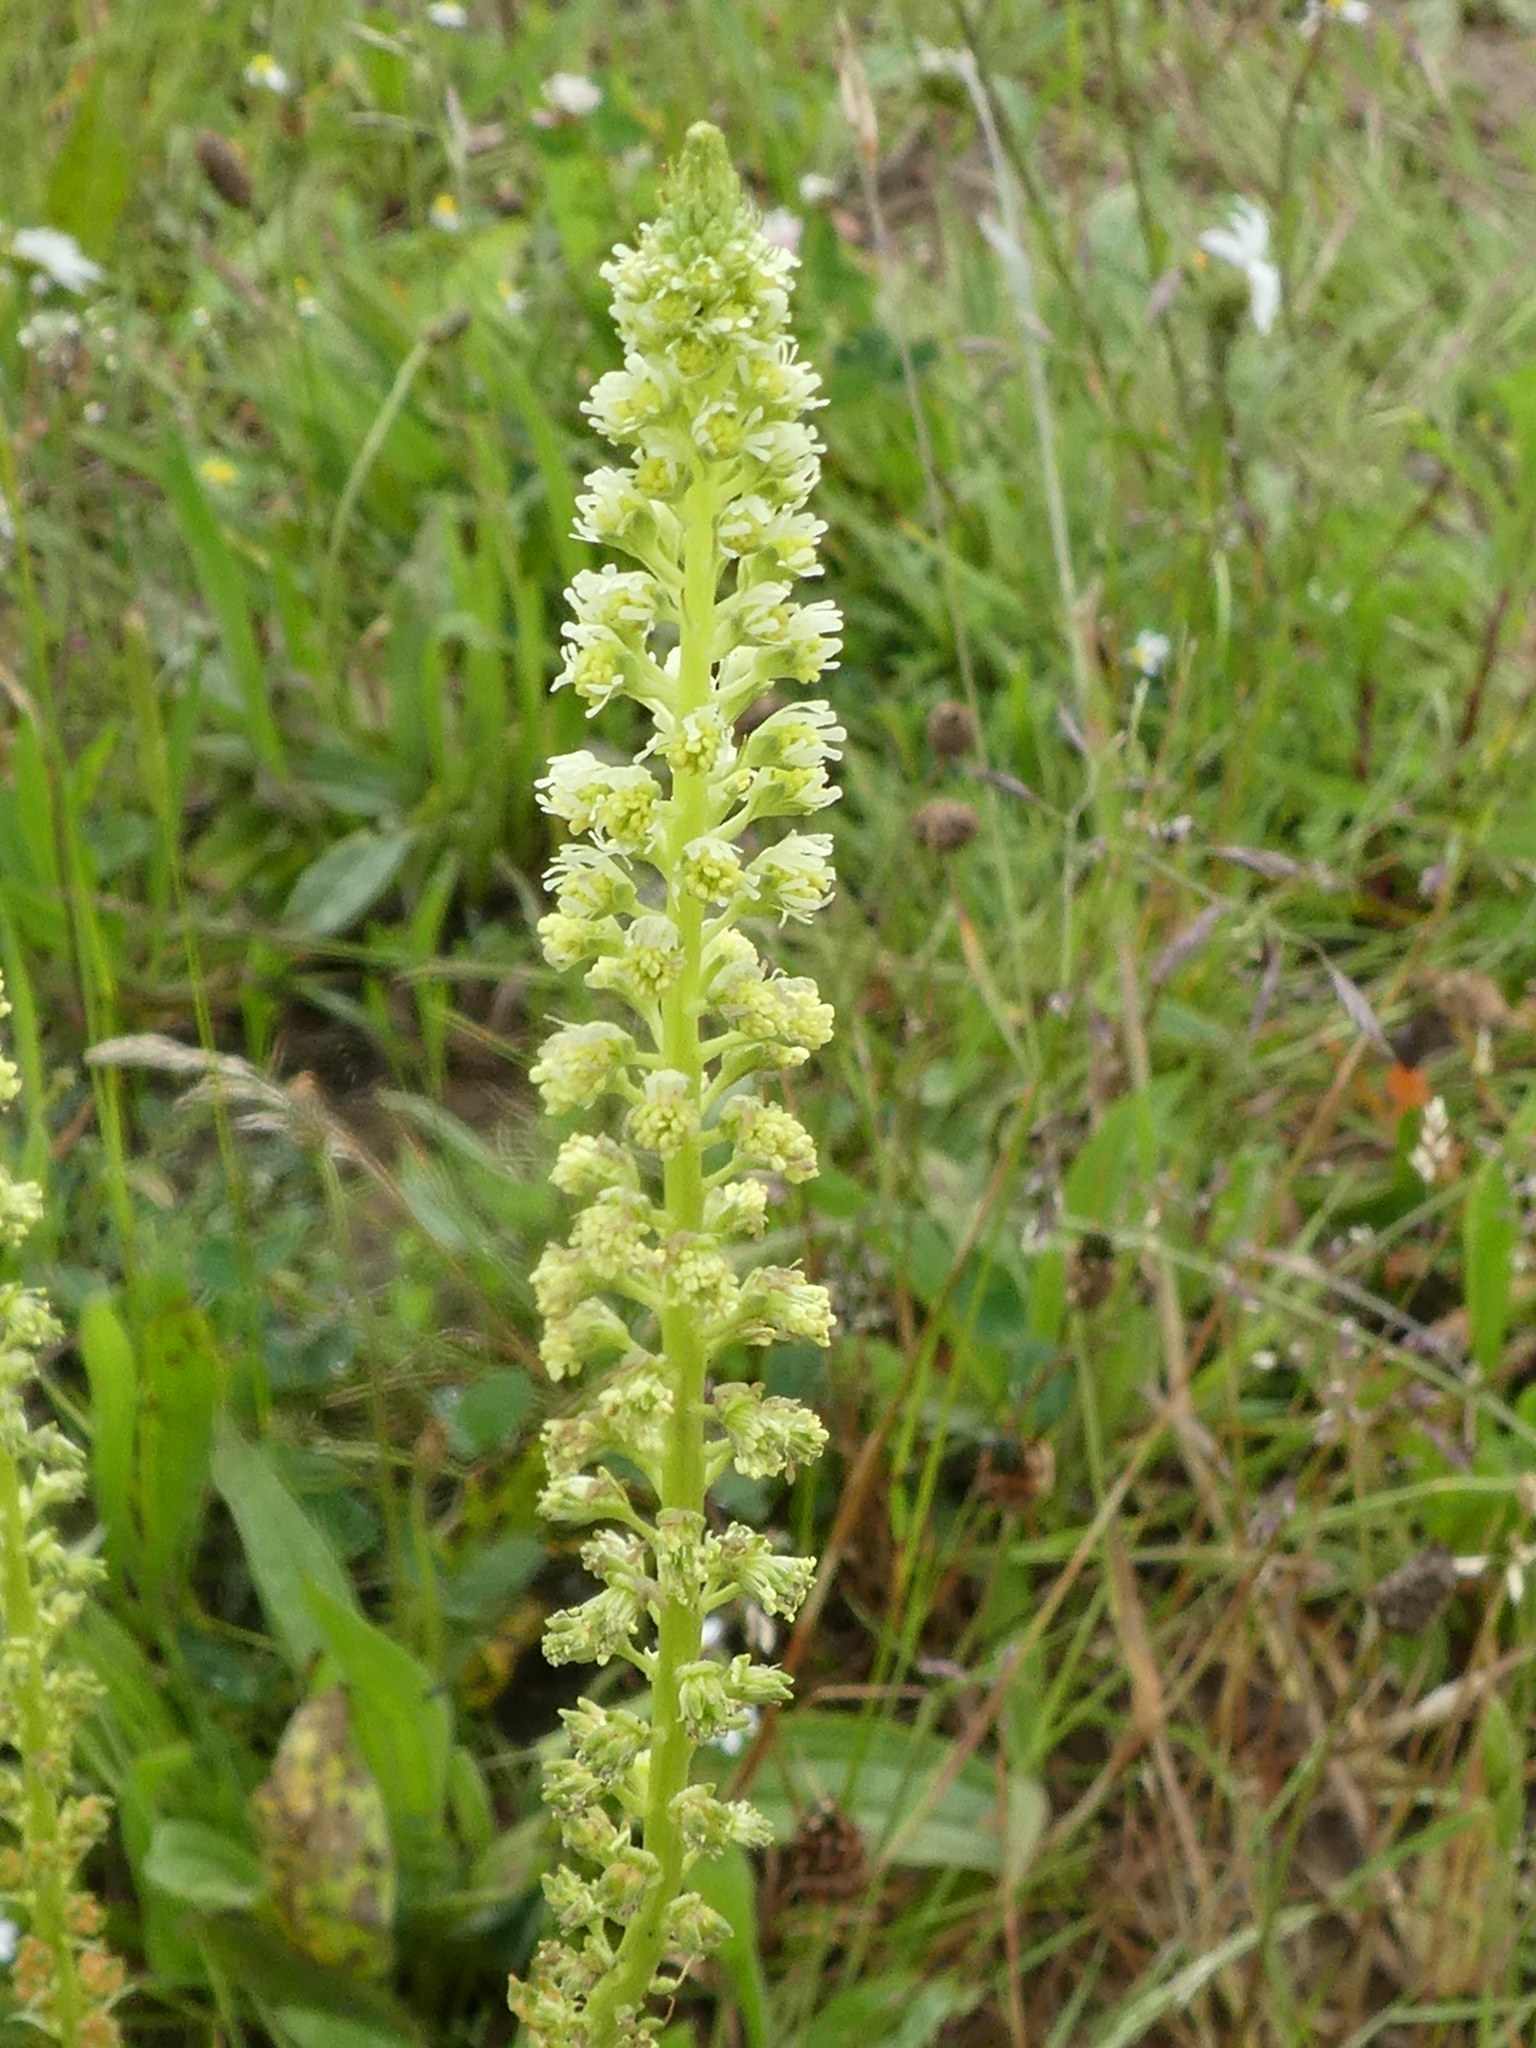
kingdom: Plantae
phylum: Tracheophyta
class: Magnoliopsida
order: Brassicales
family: Resedaceae
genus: Reseda
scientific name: Reseda luteola
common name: Weld
